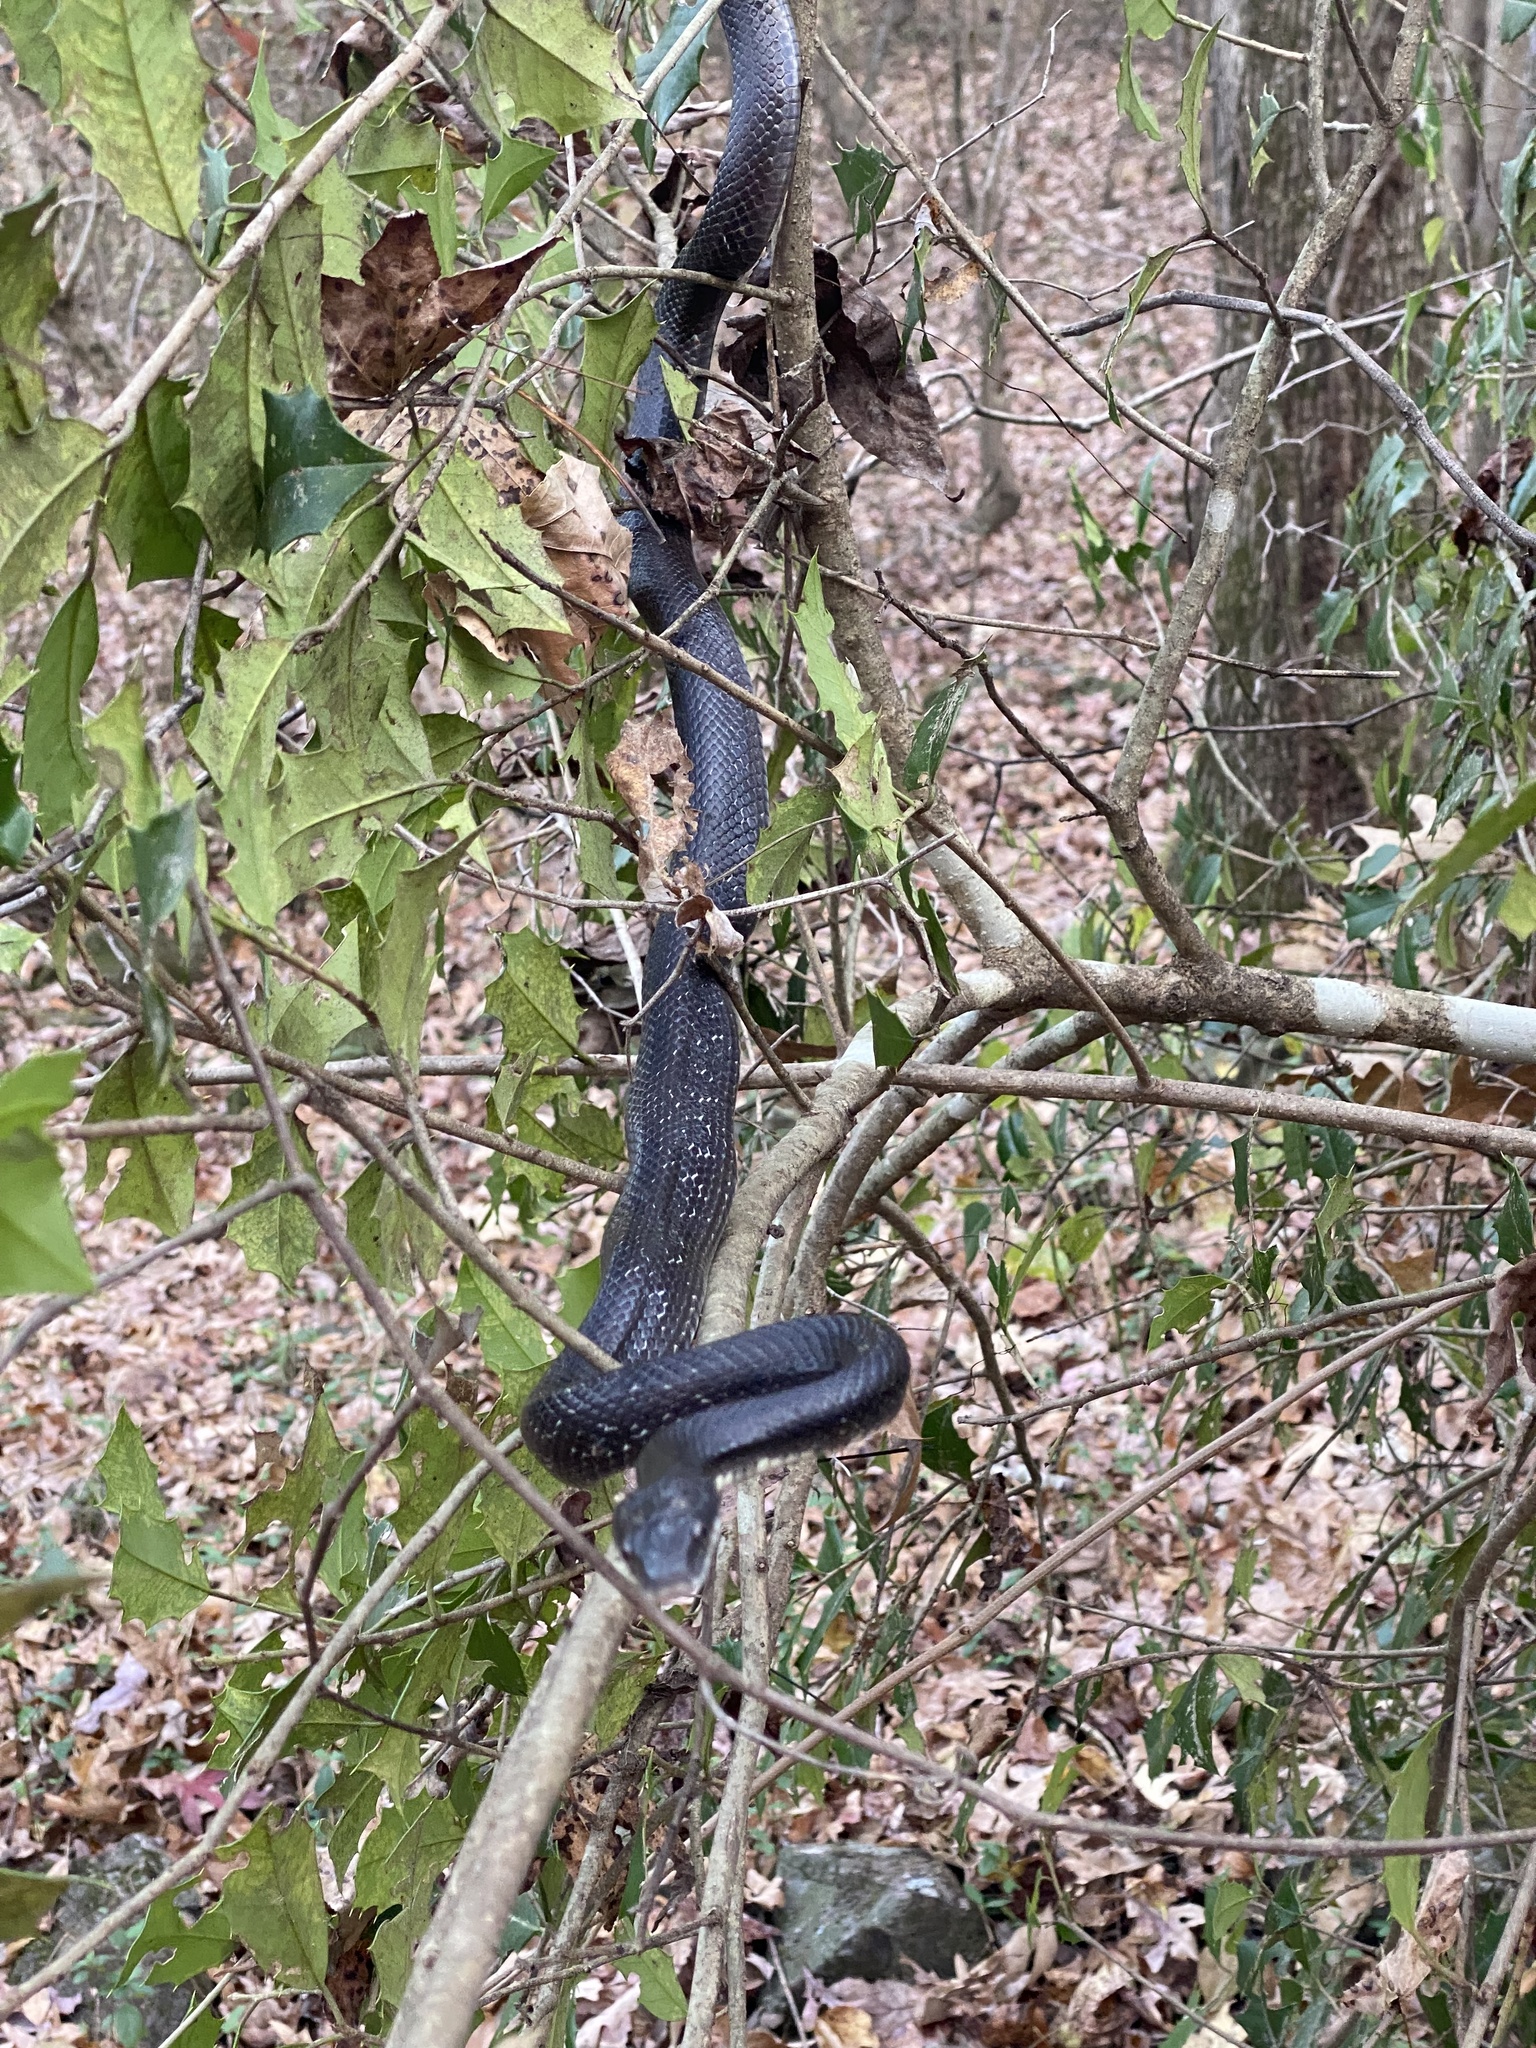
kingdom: Animalia
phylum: Chordata
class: Squamata
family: Colubridae
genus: Pantherophis
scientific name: Pantherophis alleghaniensis
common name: Eastern rat snake
